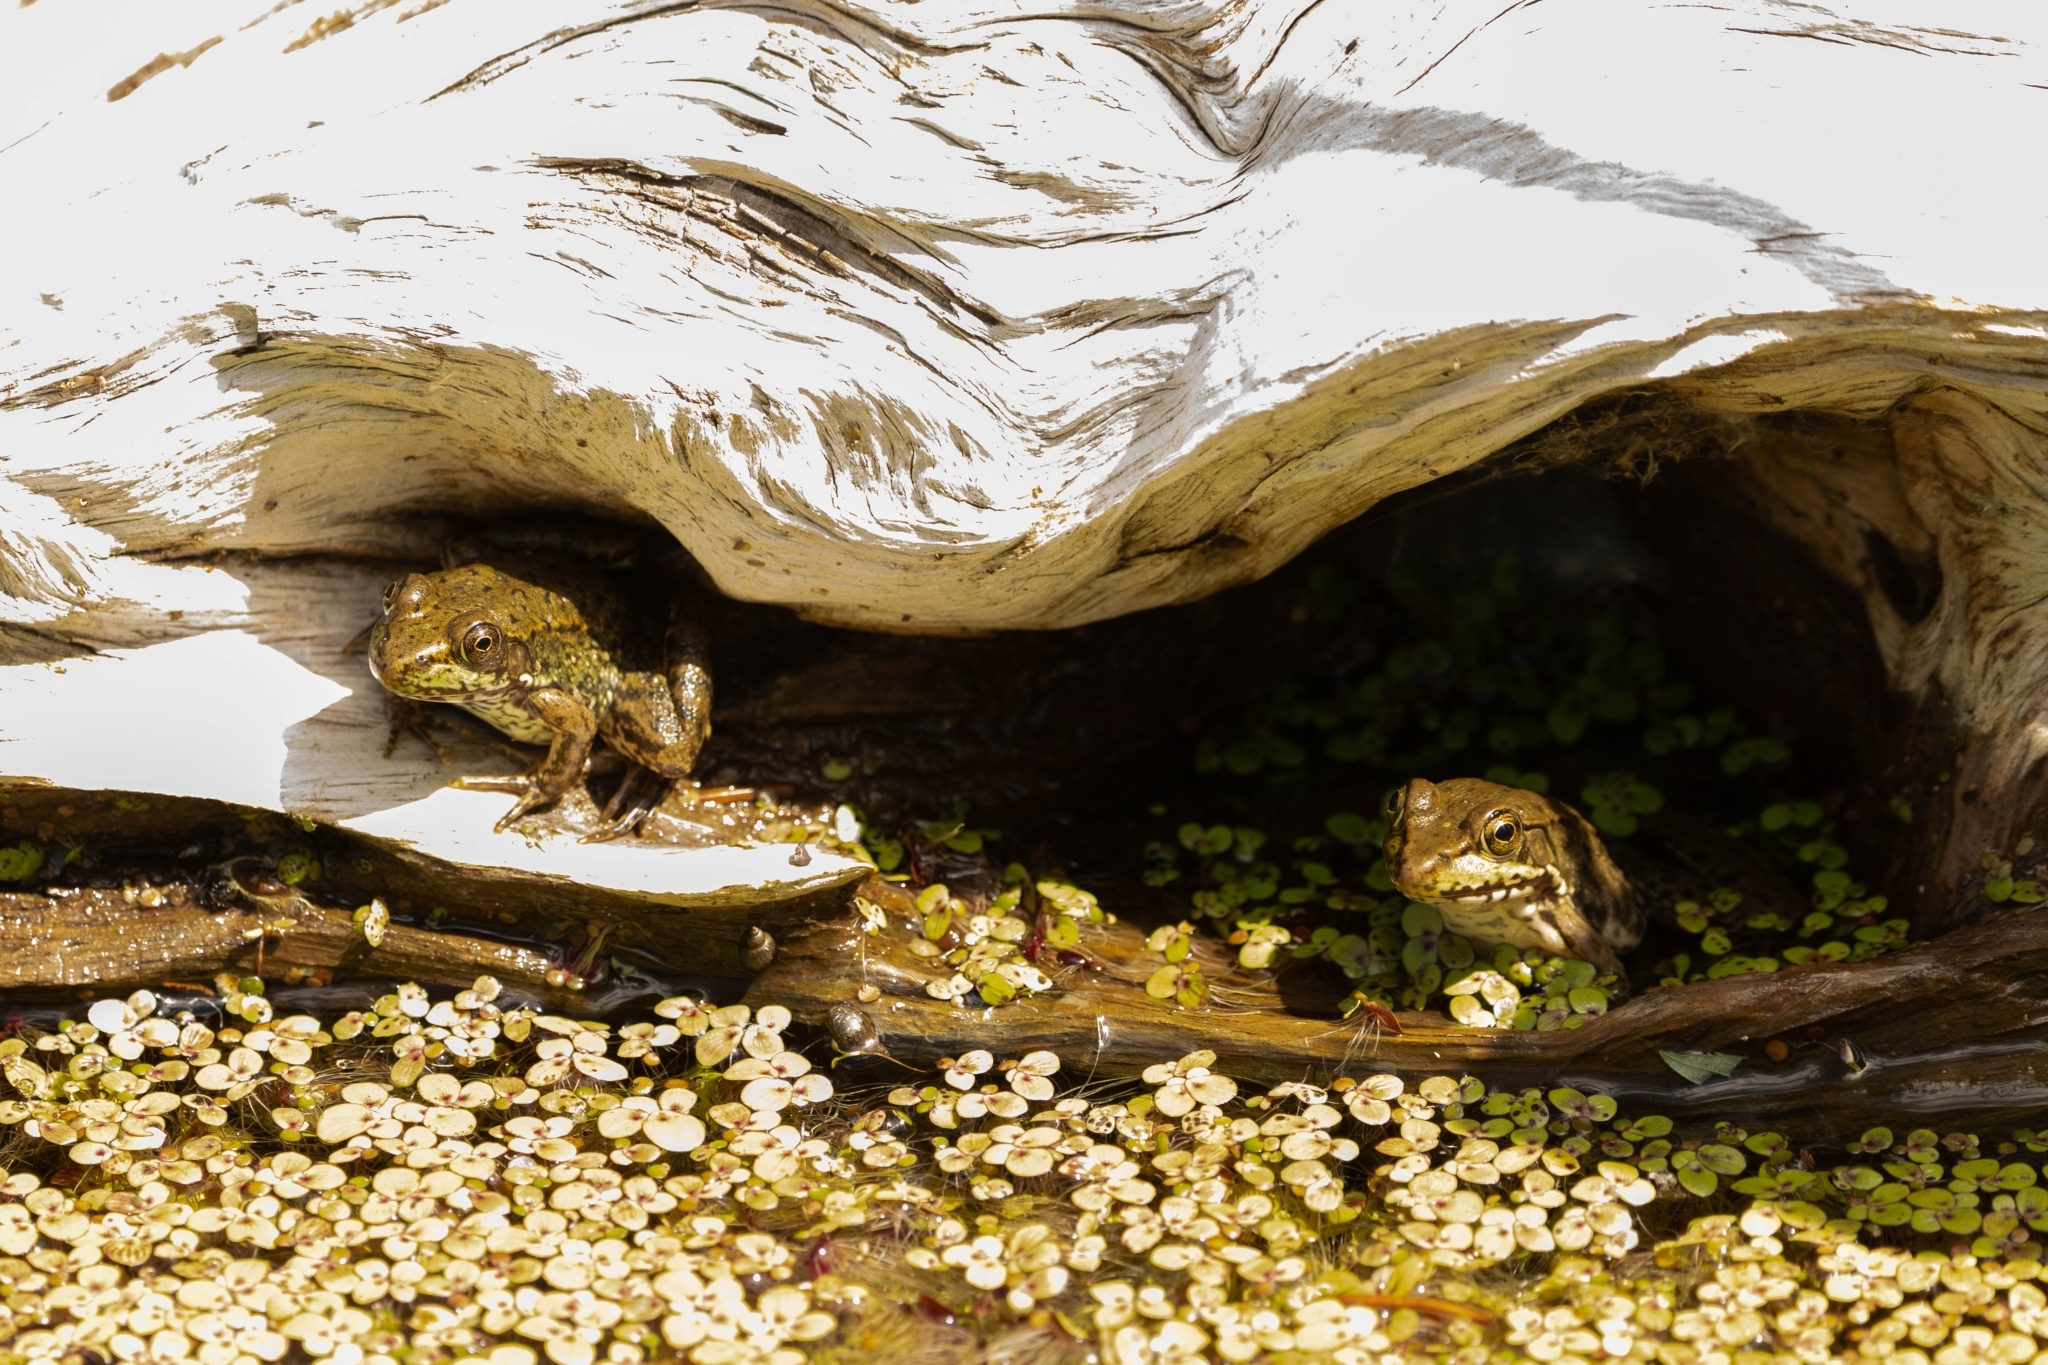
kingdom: Animalia
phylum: Chordata
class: Amphibia
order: Anura
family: Ranidae
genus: Lithobates
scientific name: Lithobates clamitans
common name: Green frog
